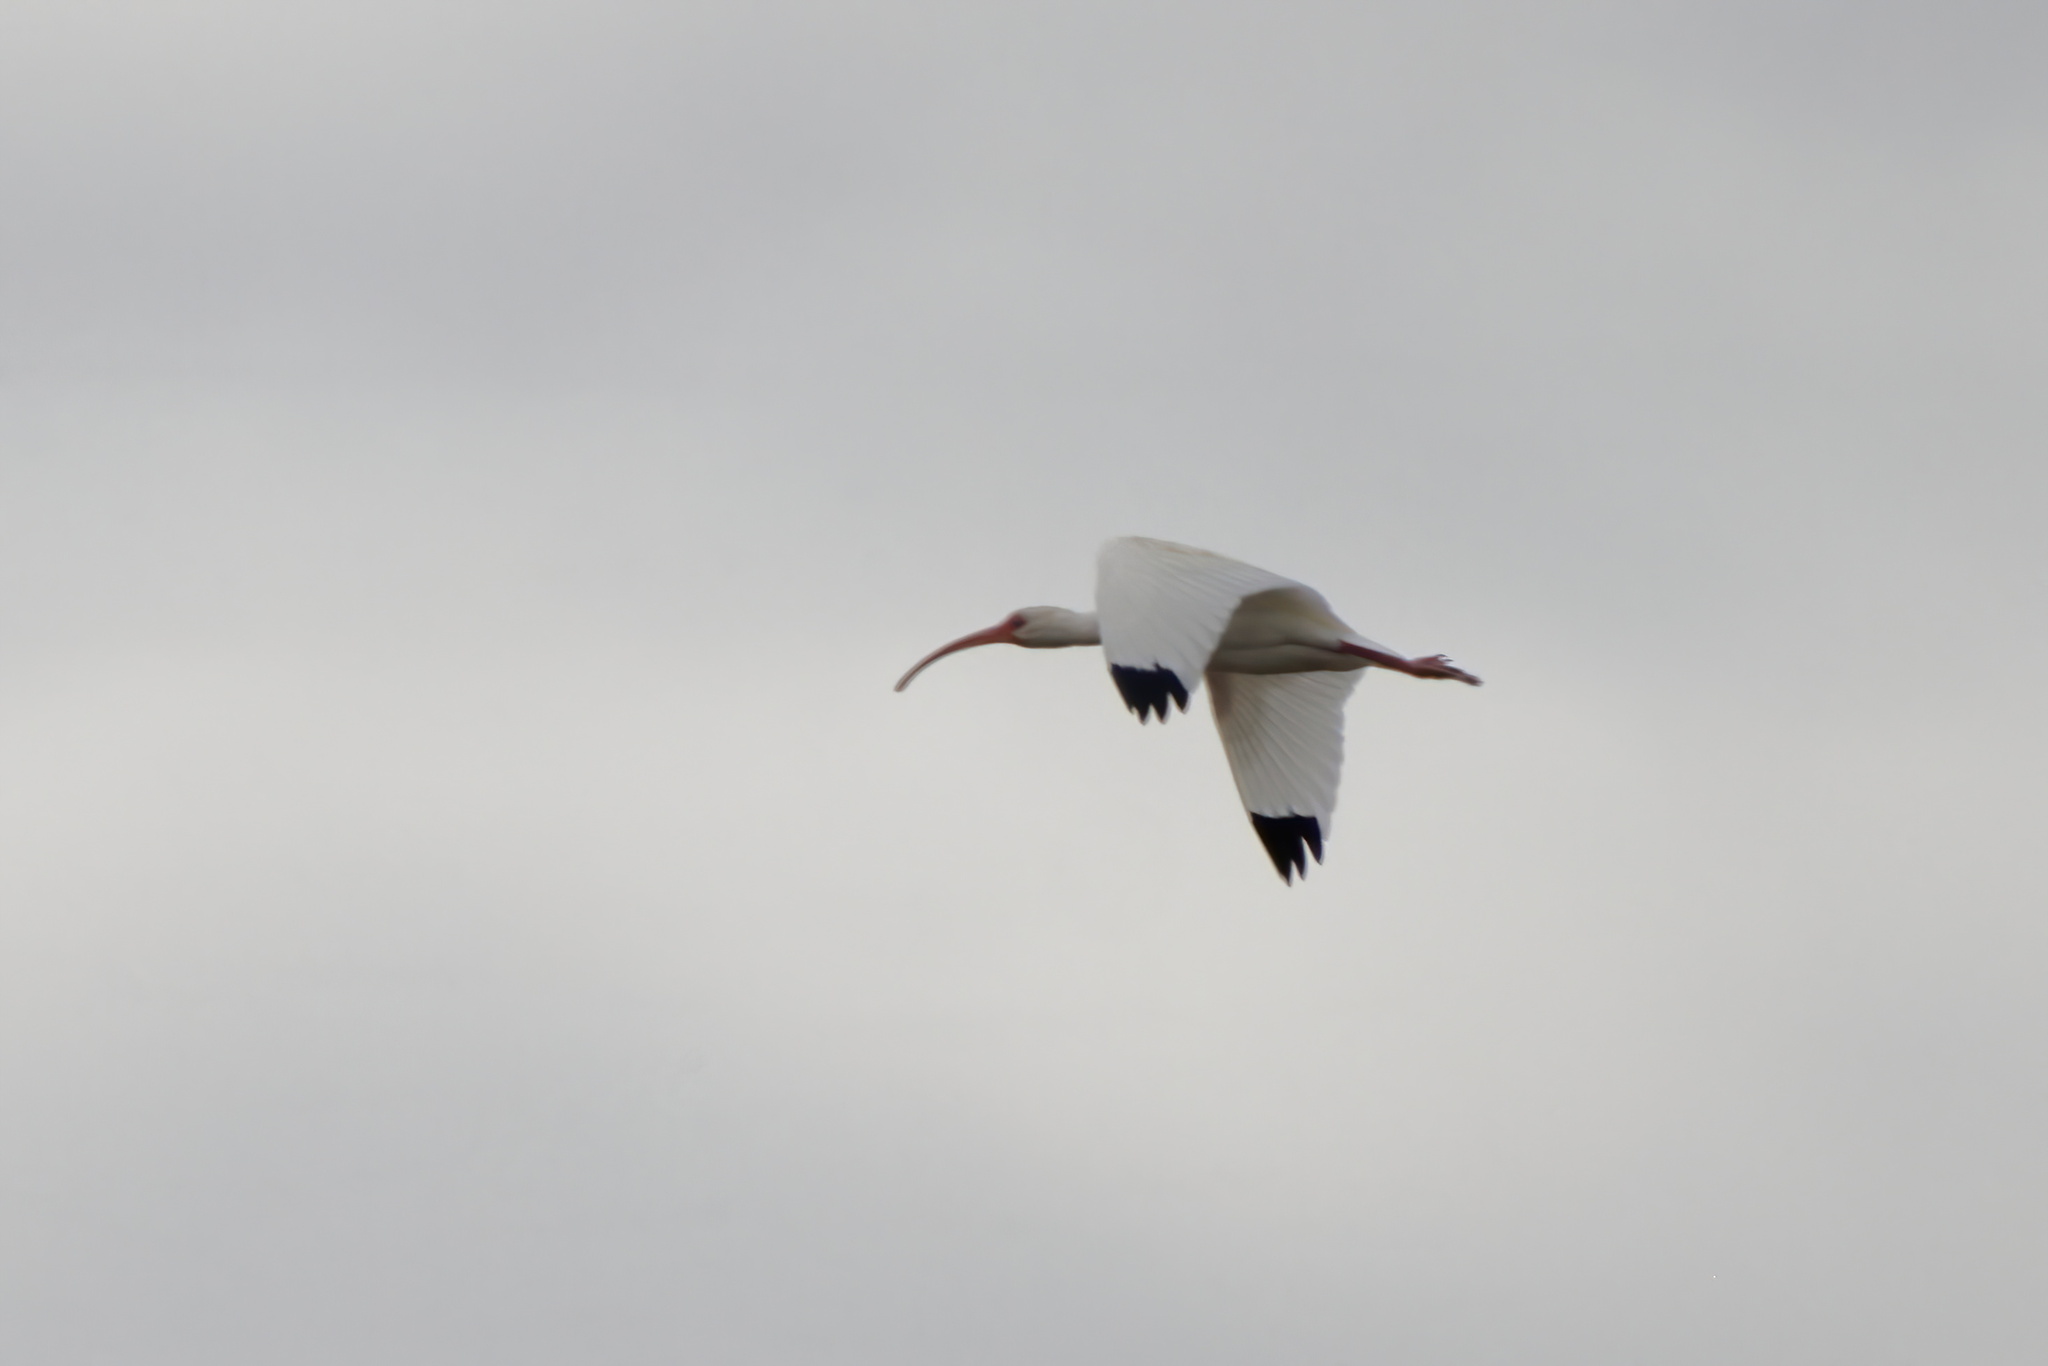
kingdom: Animalia
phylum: Chordata
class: Aves
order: Pelecaniformes
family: Threskiornithidae
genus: Eudocimus
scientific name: Eudocimus albus
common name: White ibis
